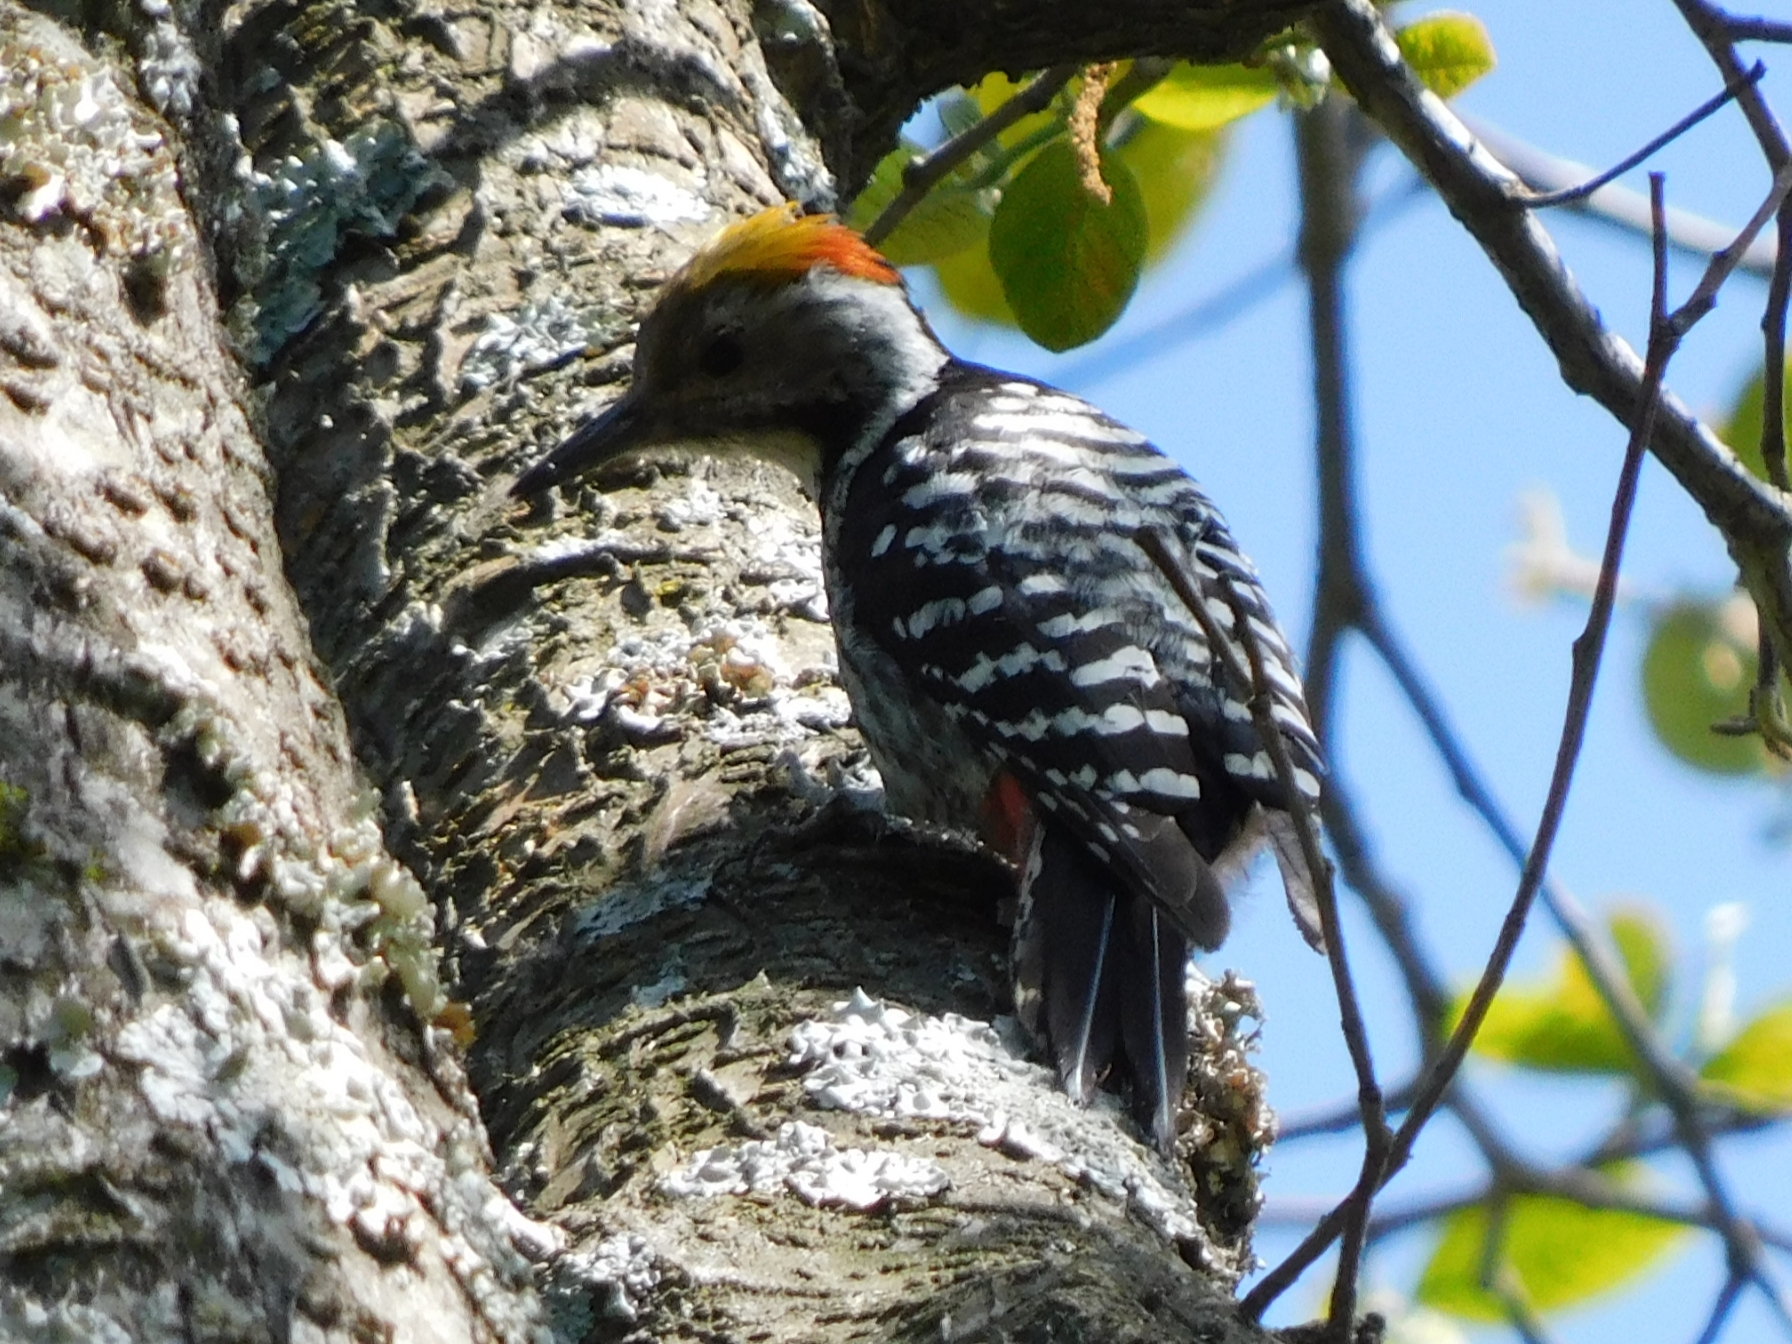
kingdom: Animalia
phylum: Chordata
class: Aves
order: Piciformes
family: Picidae
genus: Dendrocoptes
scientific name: Dendrocoptes auriceps
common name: Brown-fronted woodpecker
